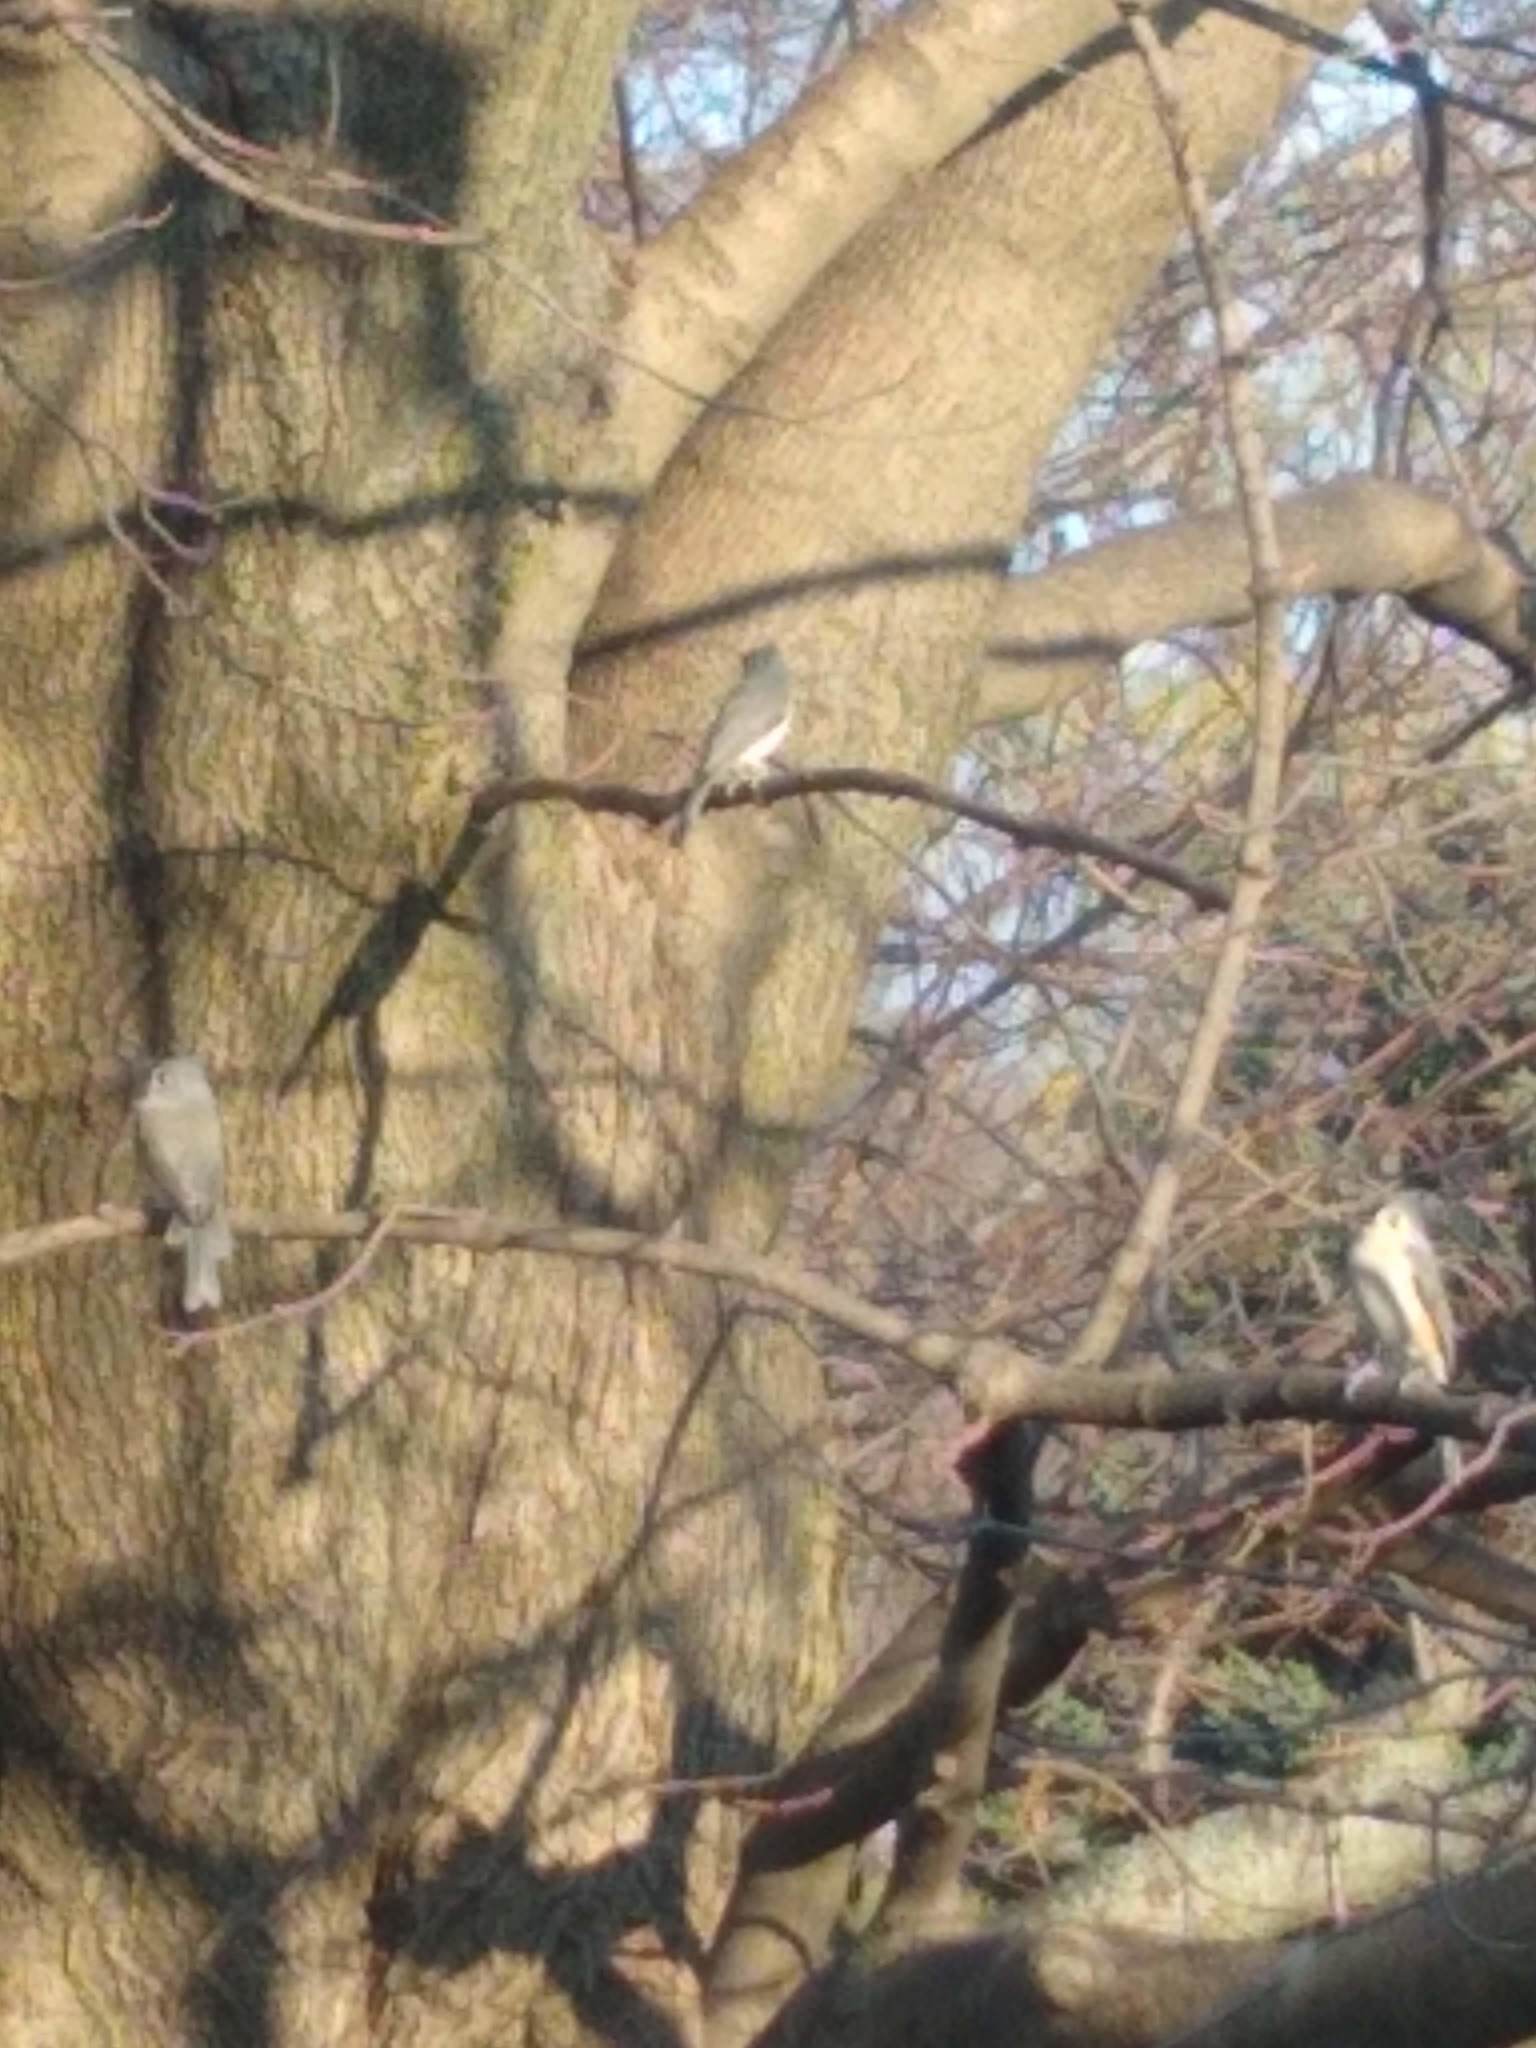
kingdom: Animalia
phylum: Chordata
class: Aves
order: Passeriformes
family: Paridae
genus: Baeolophus
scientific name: Baeolophus bicolor
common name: Tufted titmouse
